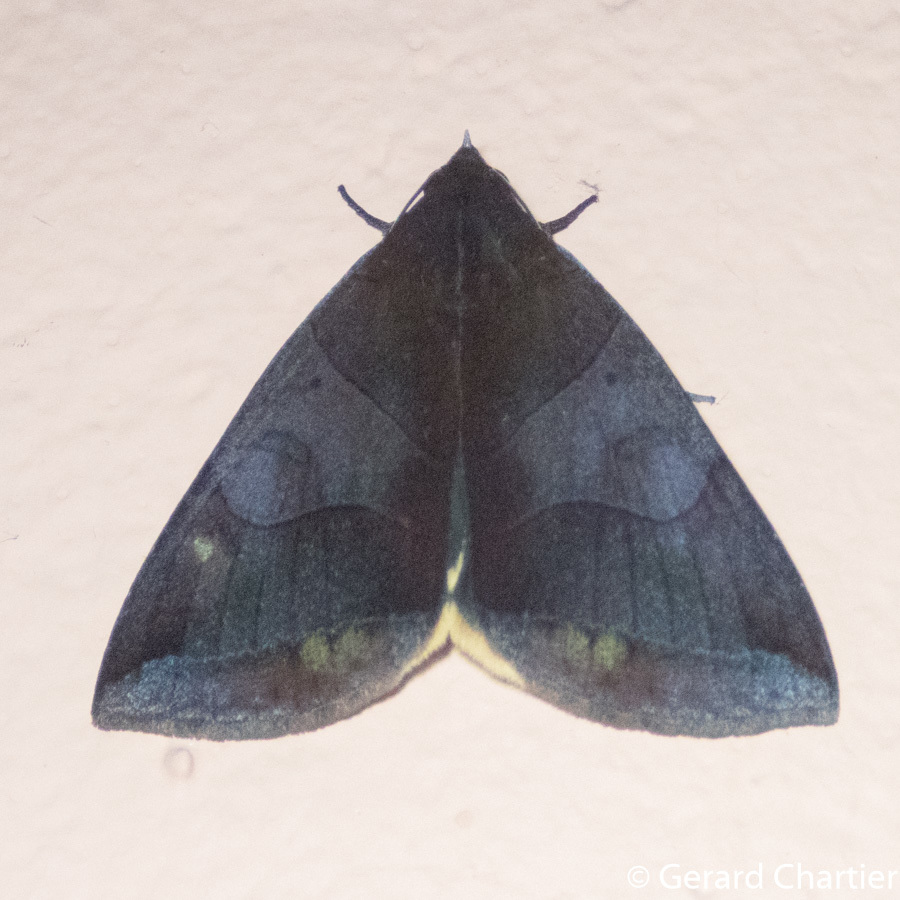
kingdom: Animalia
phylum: Arthropoda
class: Insecta
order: Lepidoptera
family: Erebidae
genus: Artena
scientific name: Artena submira
